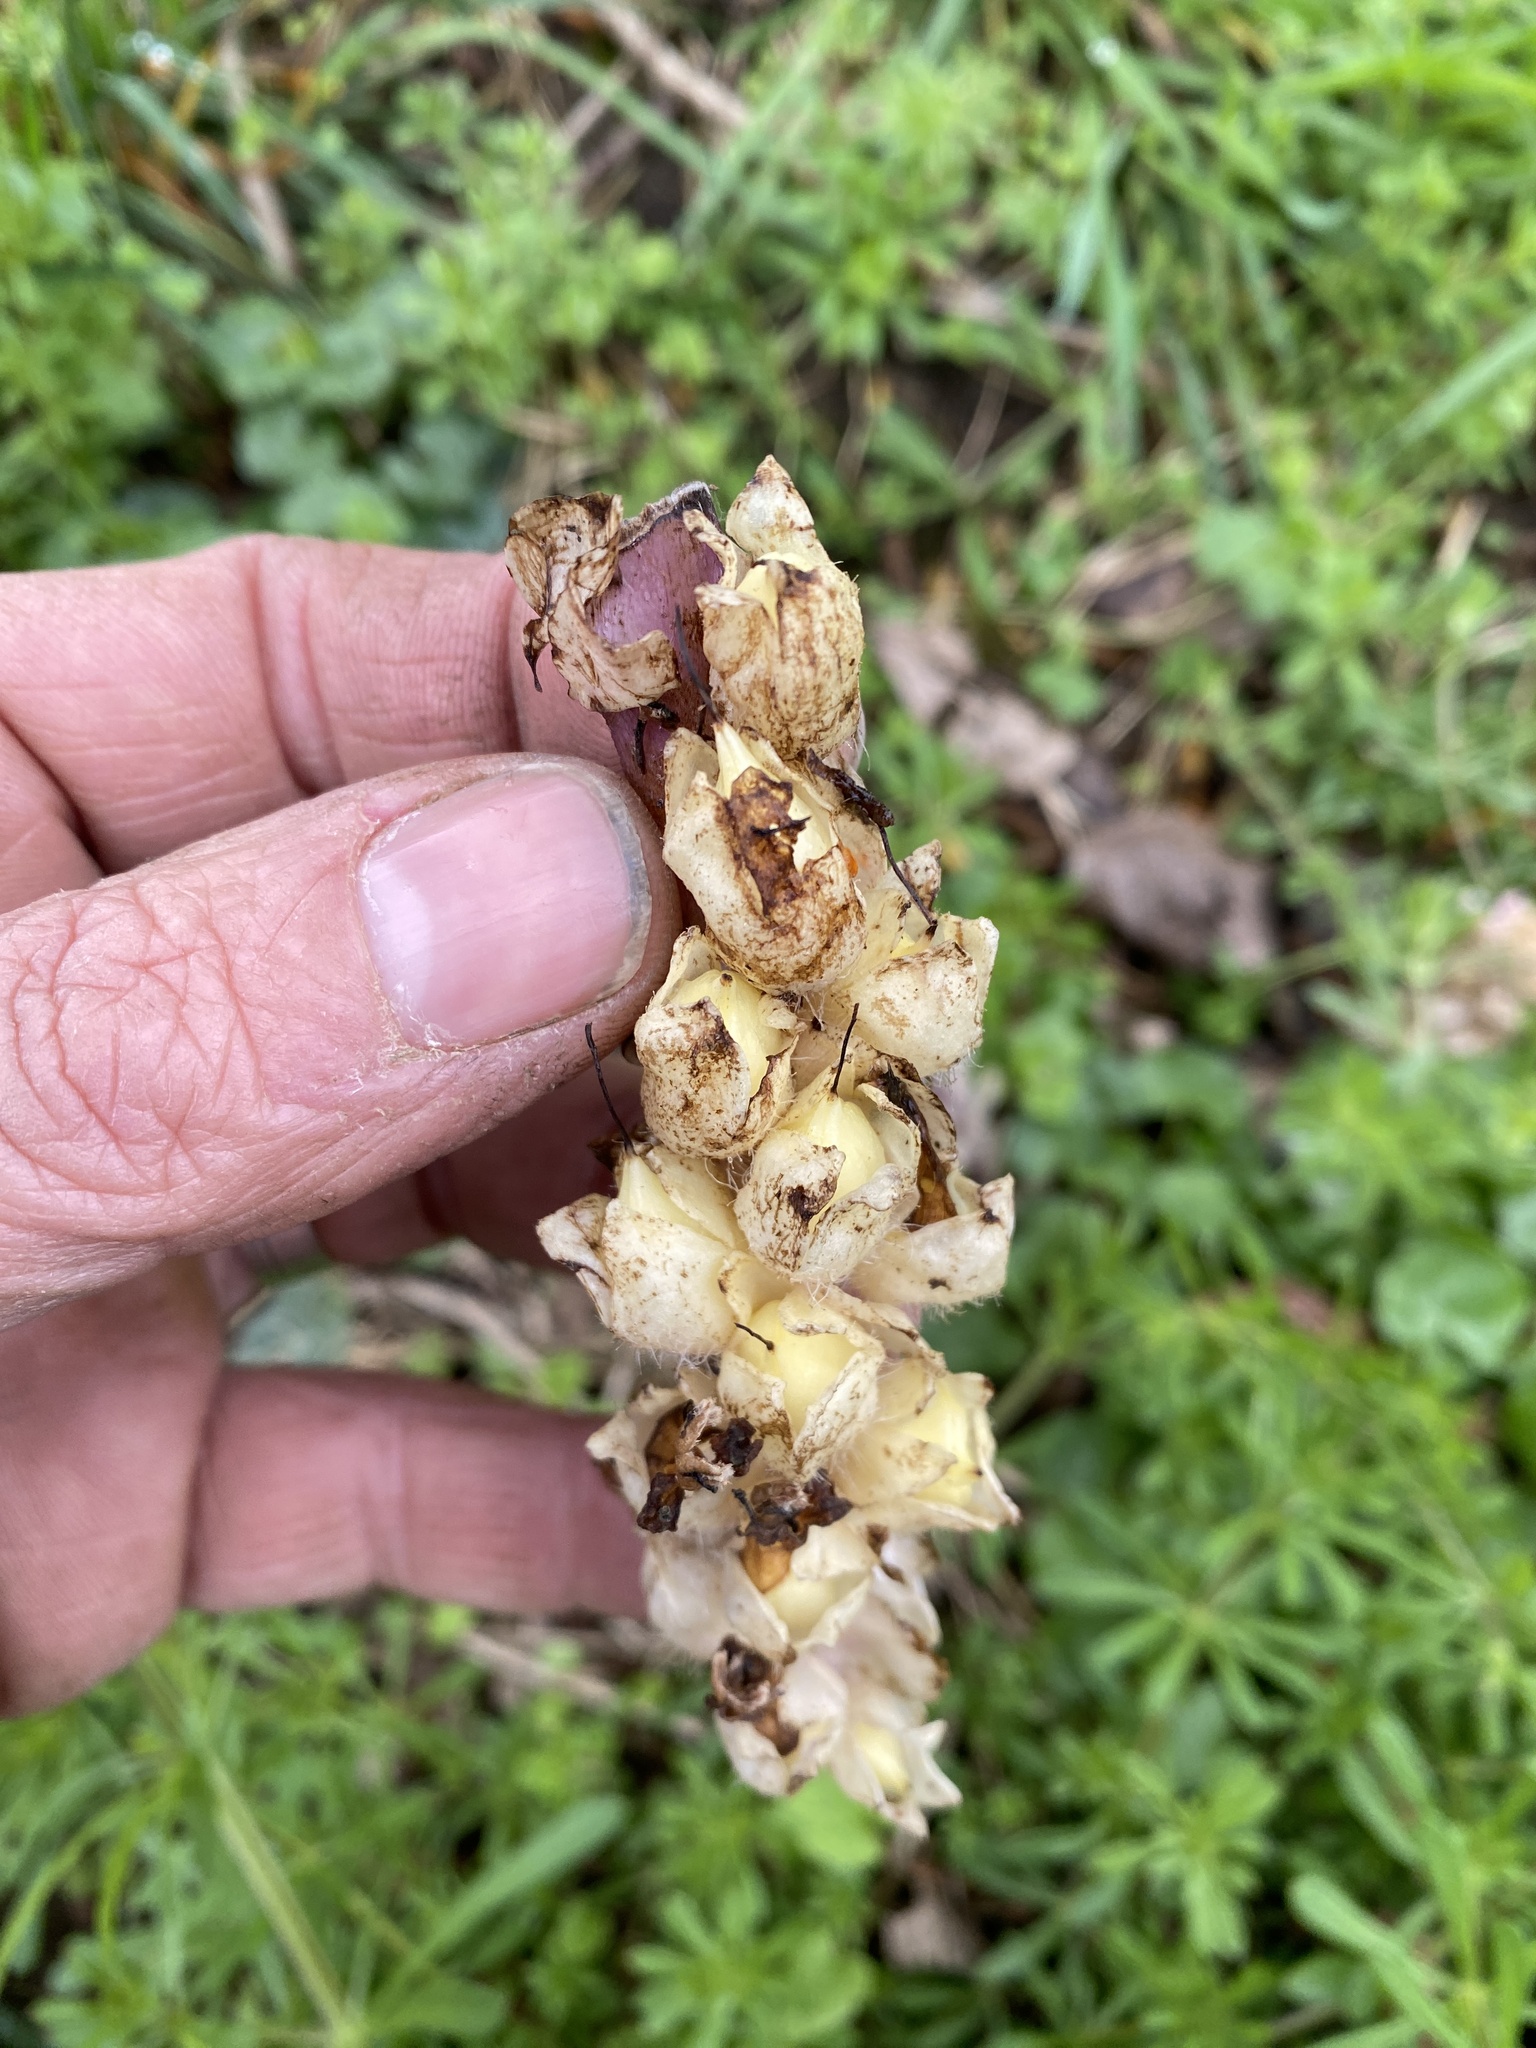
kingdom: Plantae
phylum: Tracheophyta
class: Magnoliopsida
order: Lamiales
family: Orobanchaceae
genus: Lathraea
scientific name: Lathraea squamaria
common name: Toothwort
